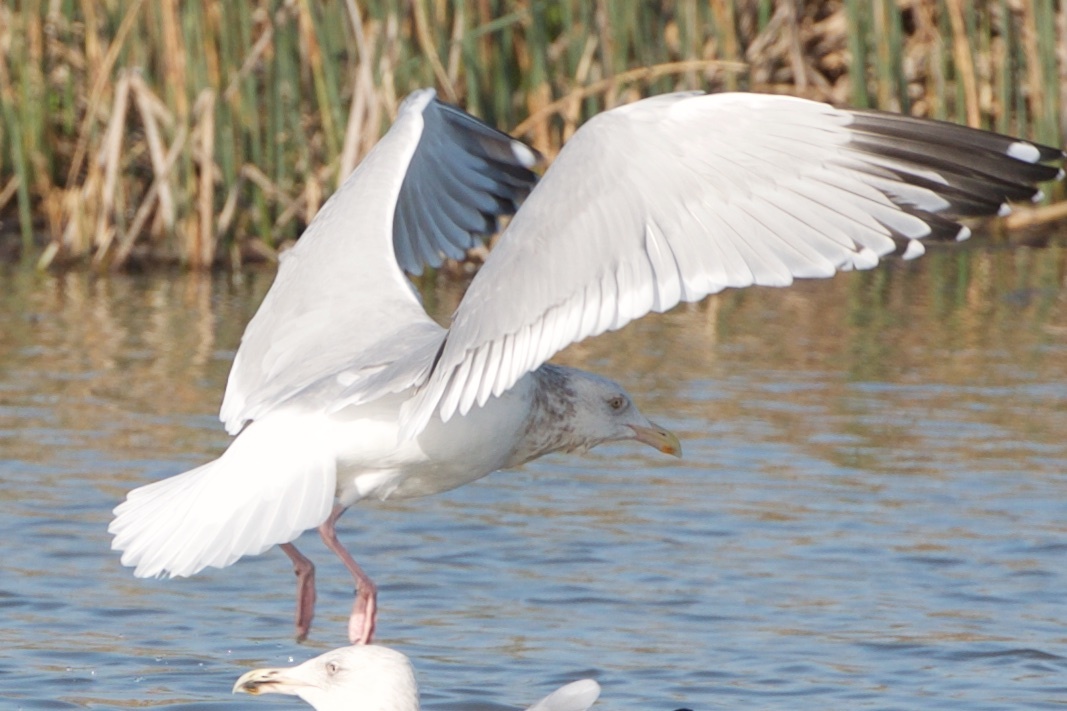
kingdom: Animalia
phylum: Chordata
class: Aves
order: Charadriiformes
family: Laridae
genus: Larus
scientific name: Larus argentatus
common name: Herring gull
